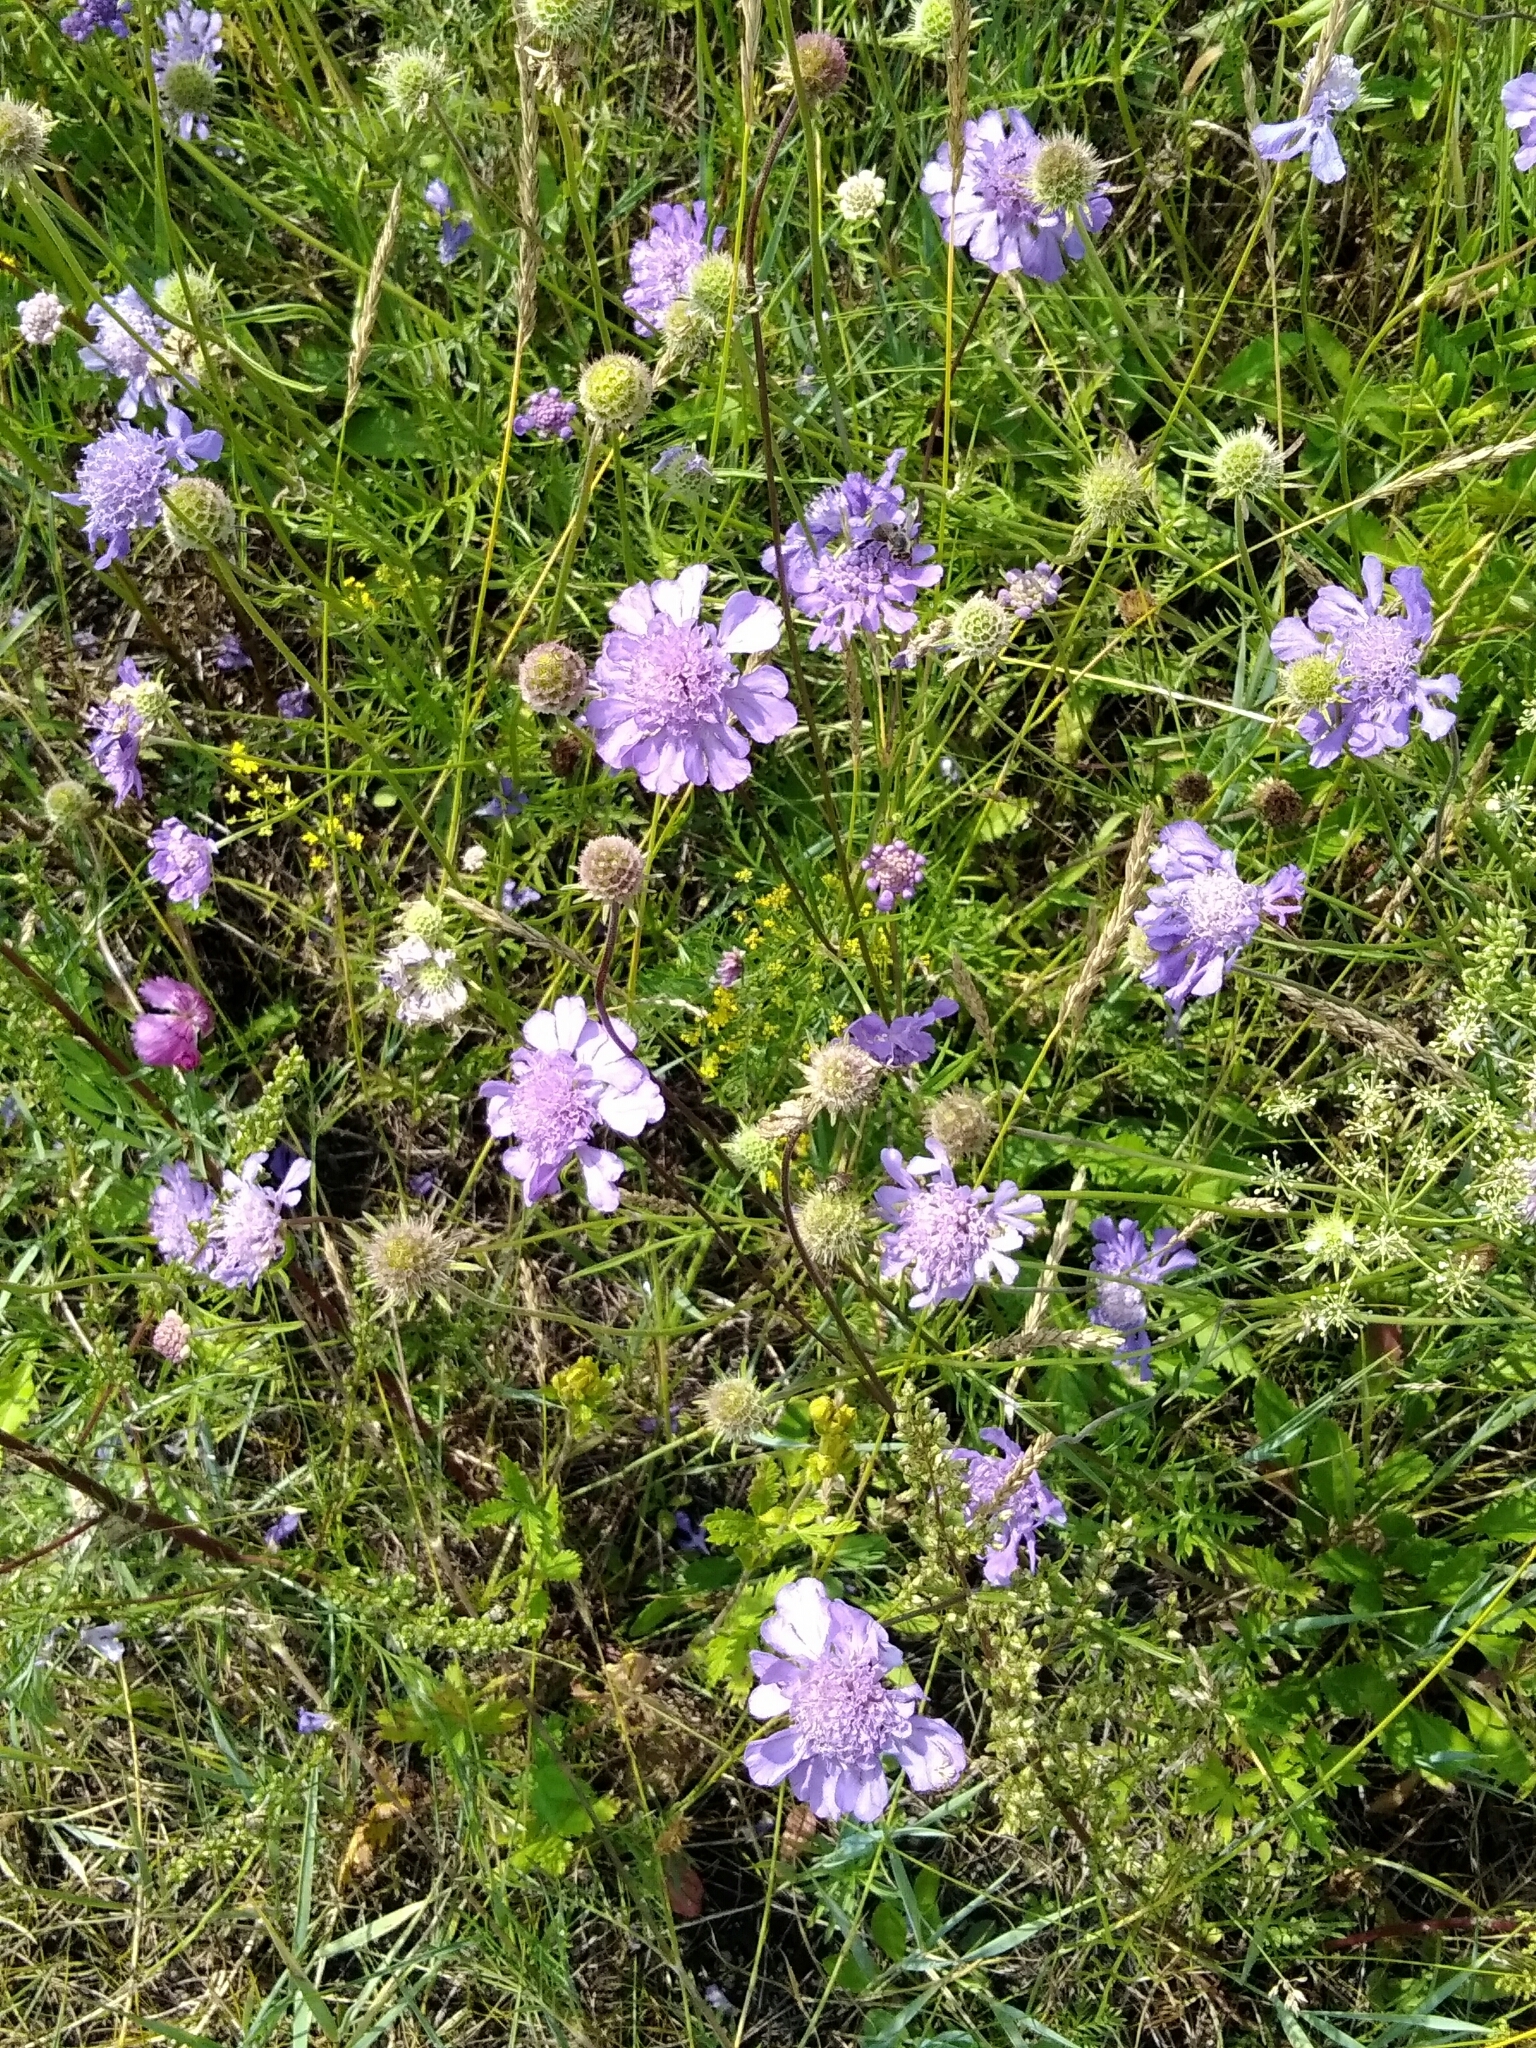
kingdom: Plantae
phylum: Tracheophyta
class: Magnoliopsida
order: Dipsacales
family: Caprifoliaceae
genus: Scabiosa
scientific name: Scabiosa comosa
